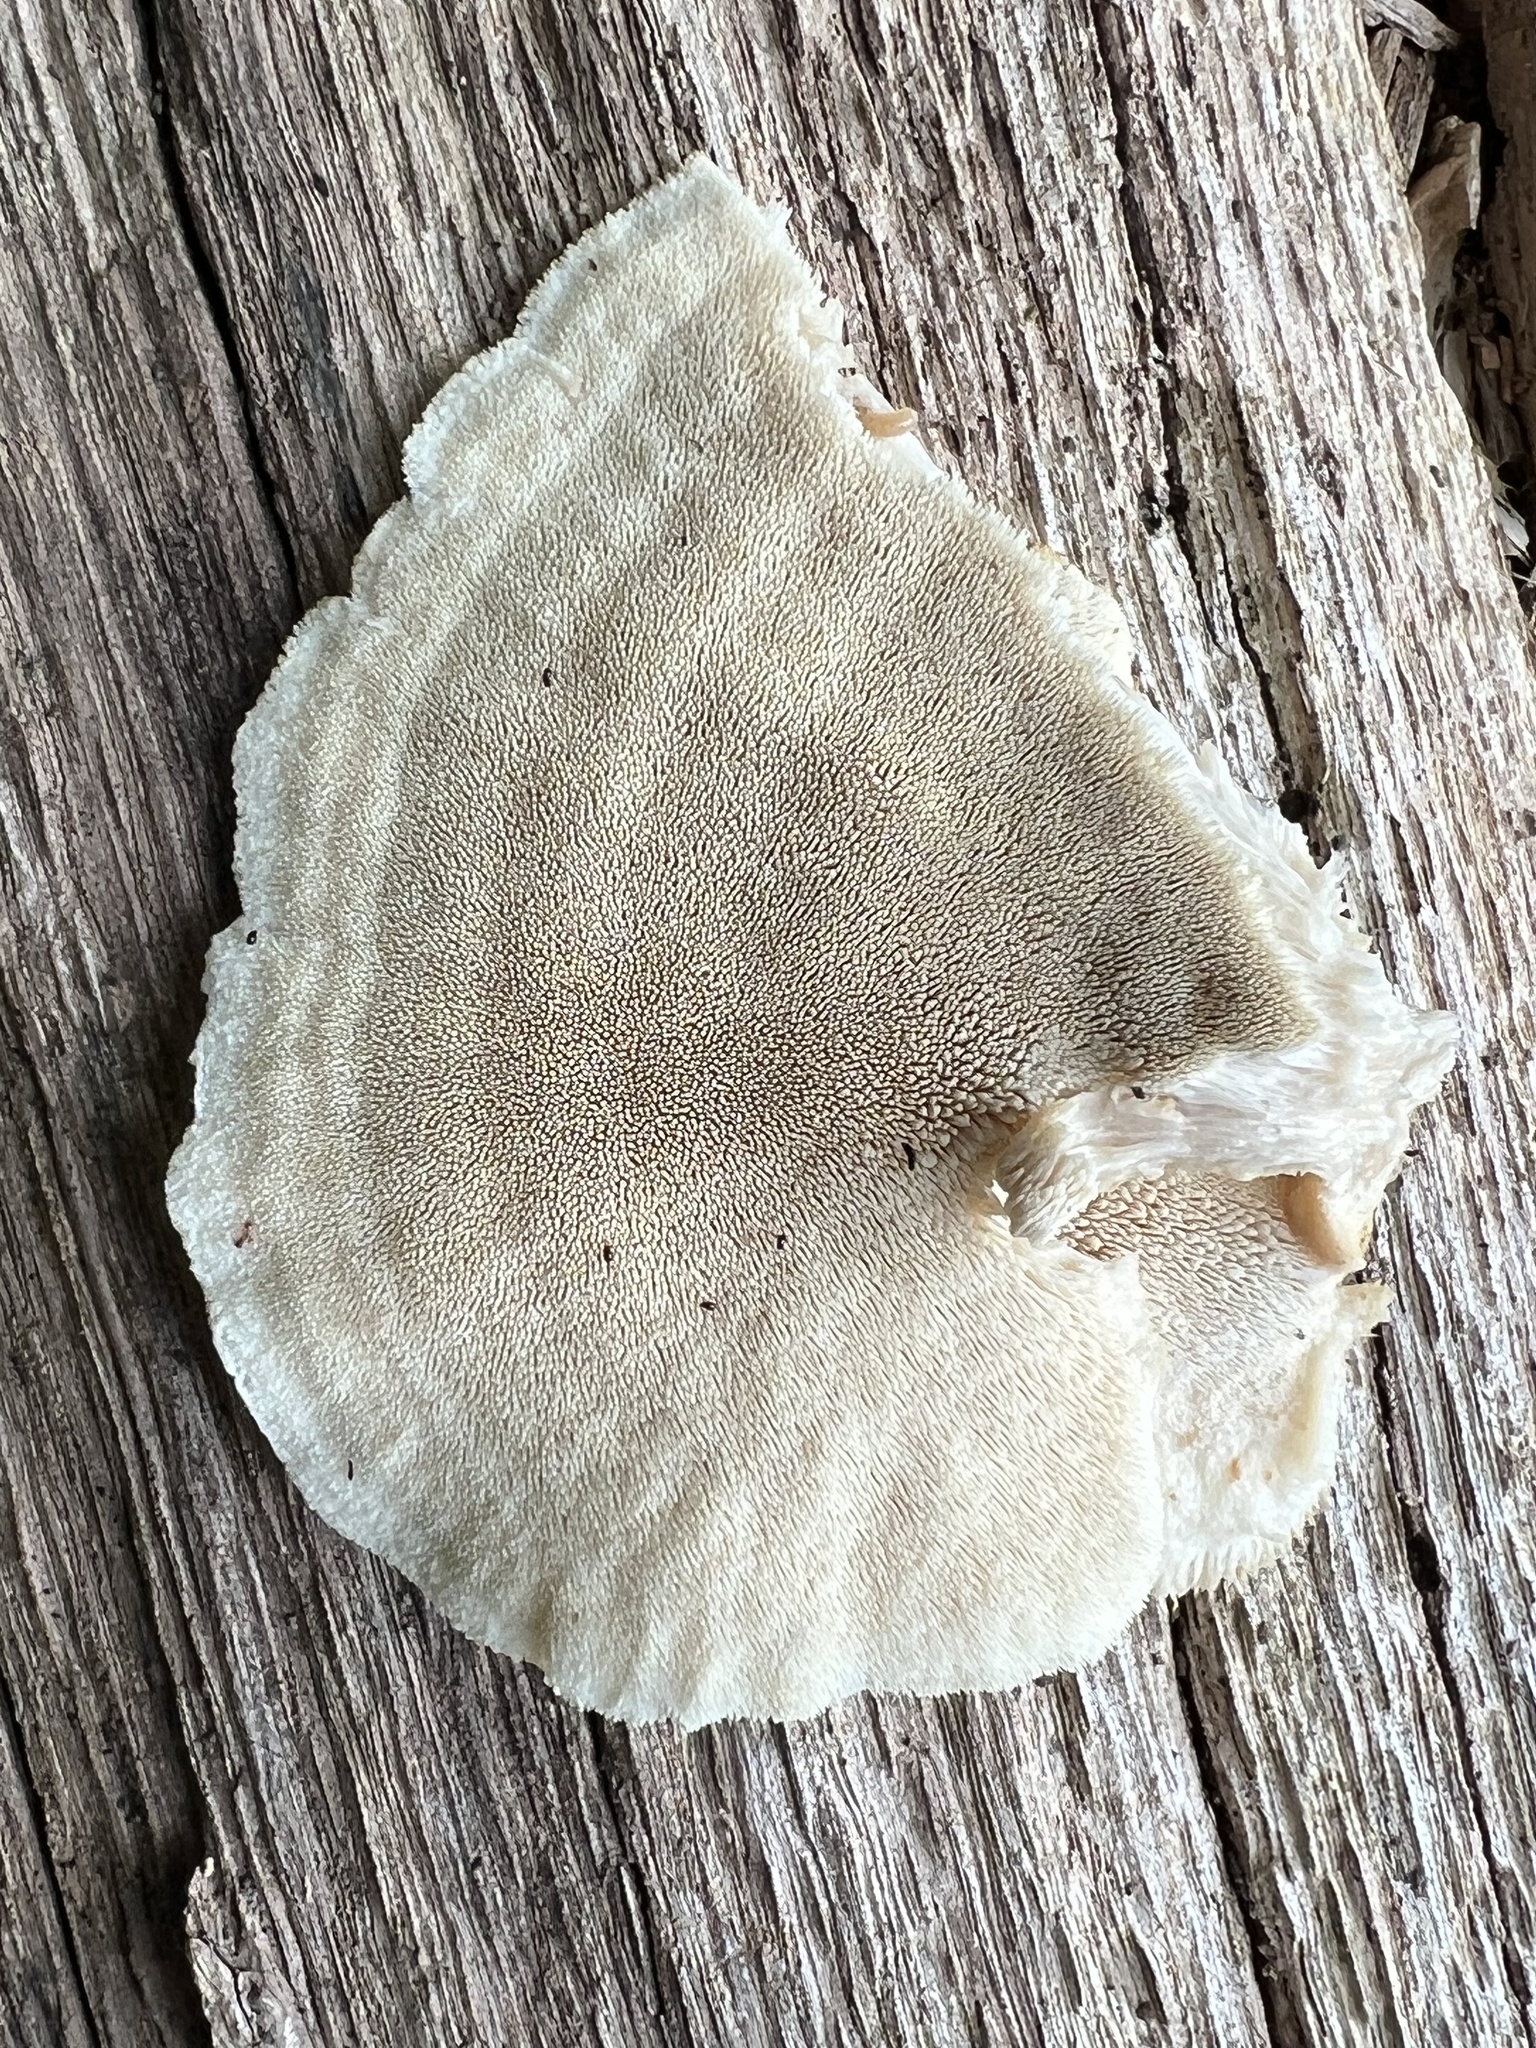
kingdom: Fungi
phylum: Basidiomycota
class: Agaricomycetes
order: Polyporales
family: Meruliaceae
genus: Donkia
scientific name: Donkia pulcherrima
